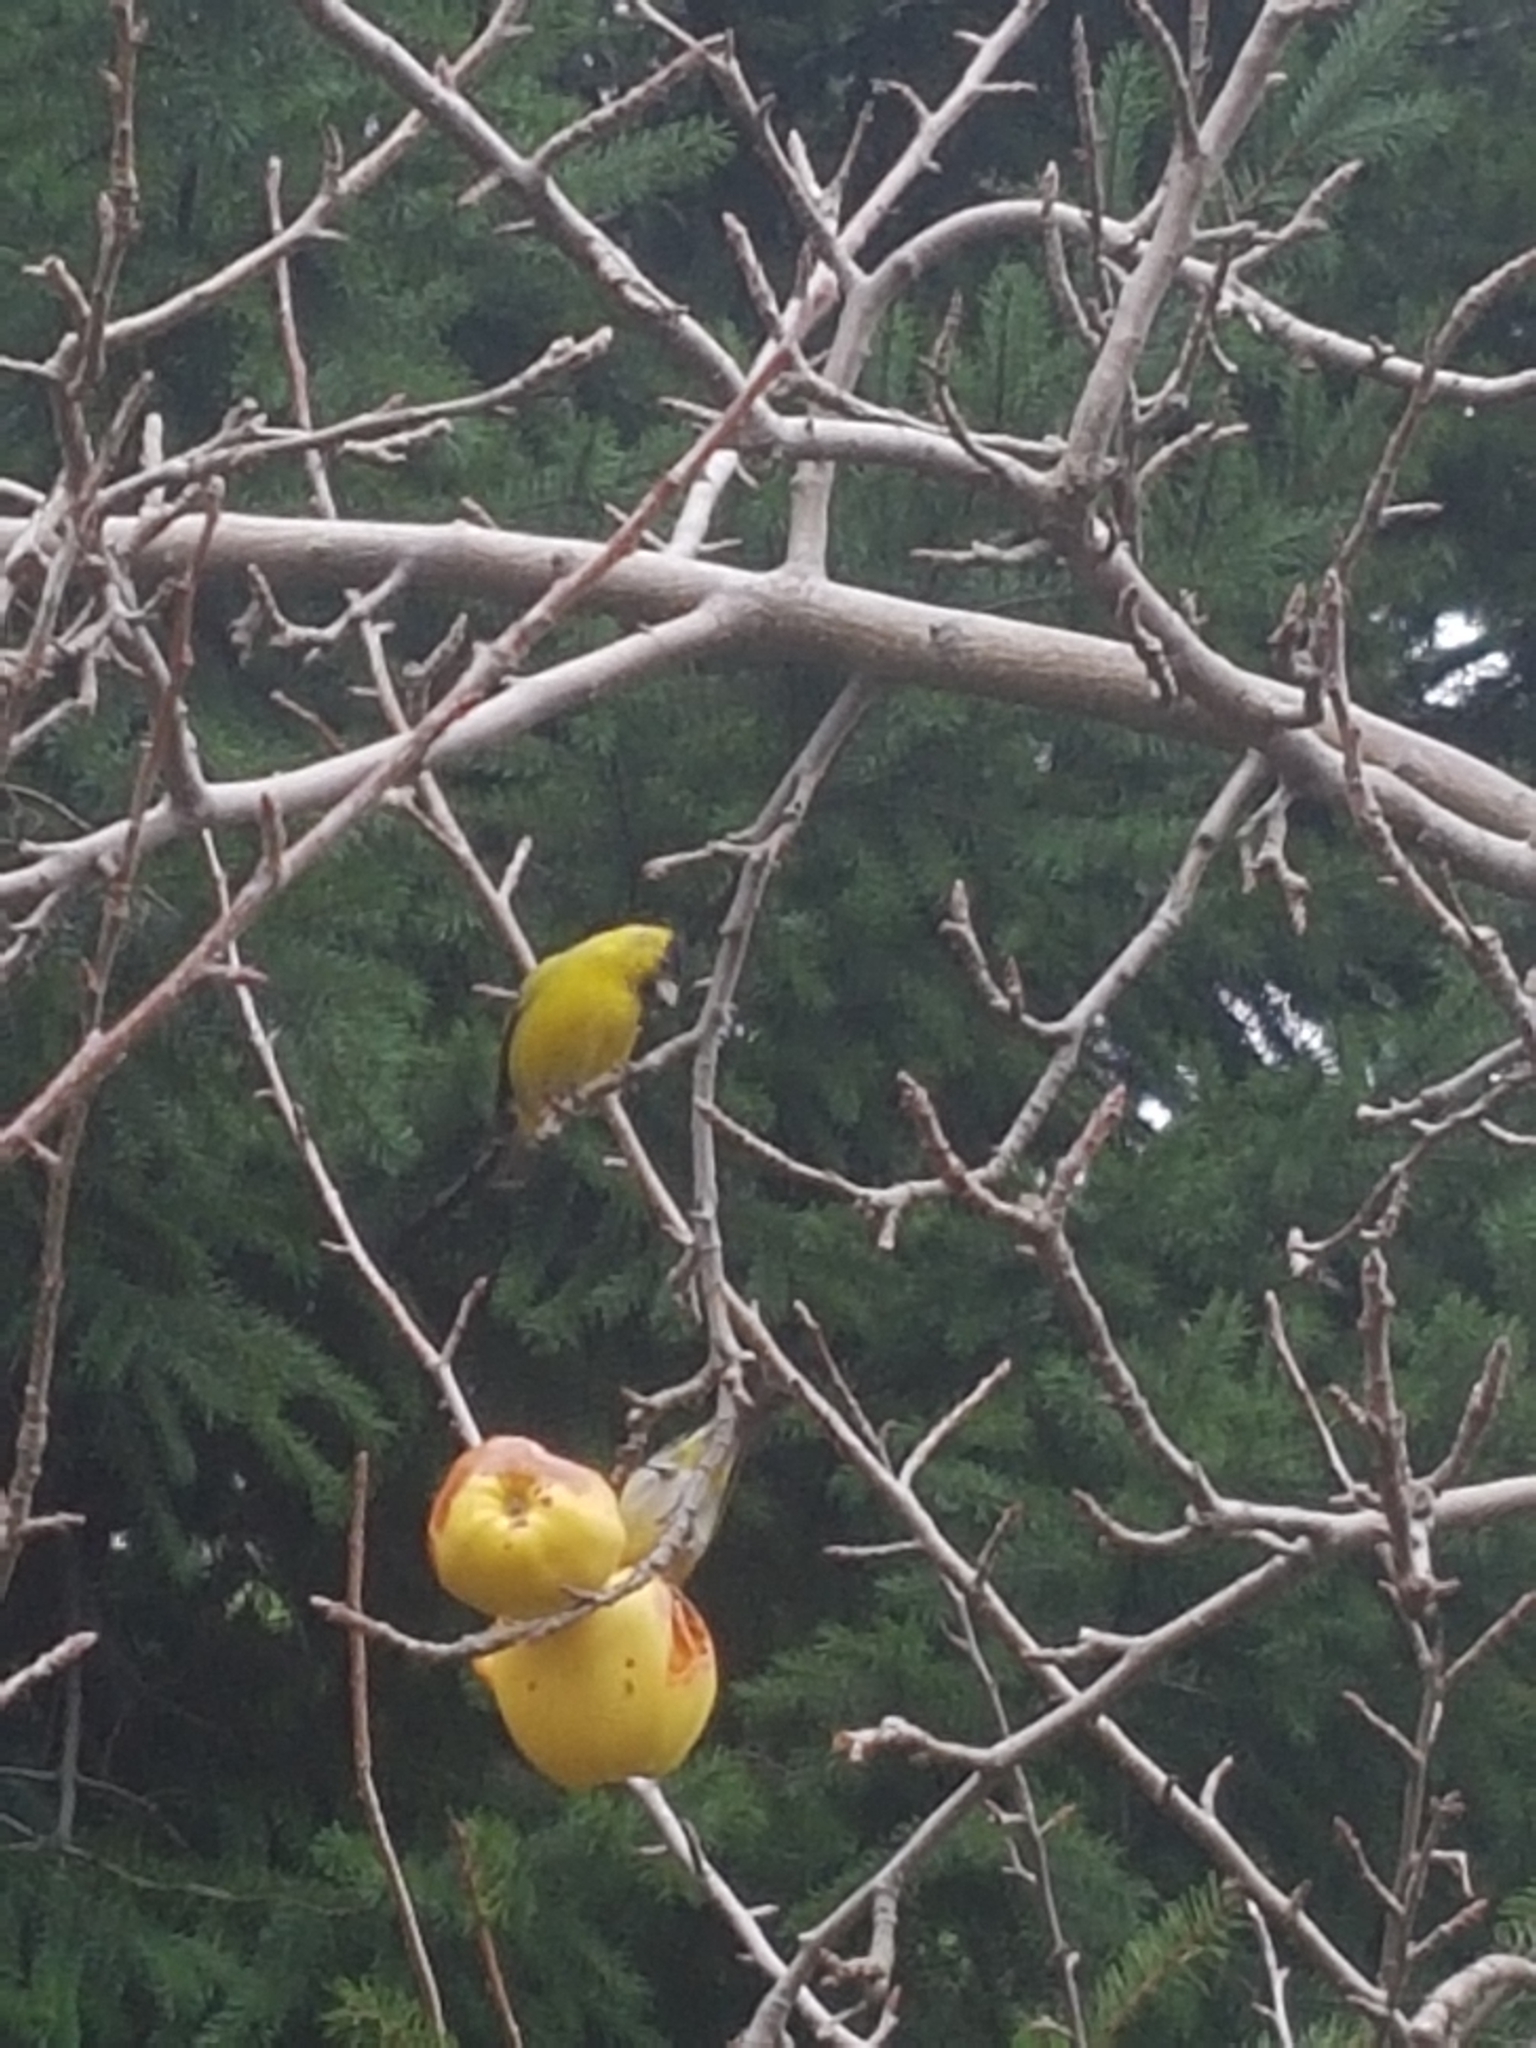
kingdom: Animalia
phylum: Chordata
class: Aves
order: Passeriformes
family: Fringillidae
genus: Spinus
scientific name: Spinus barbatus
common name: Black-chinned siskin
